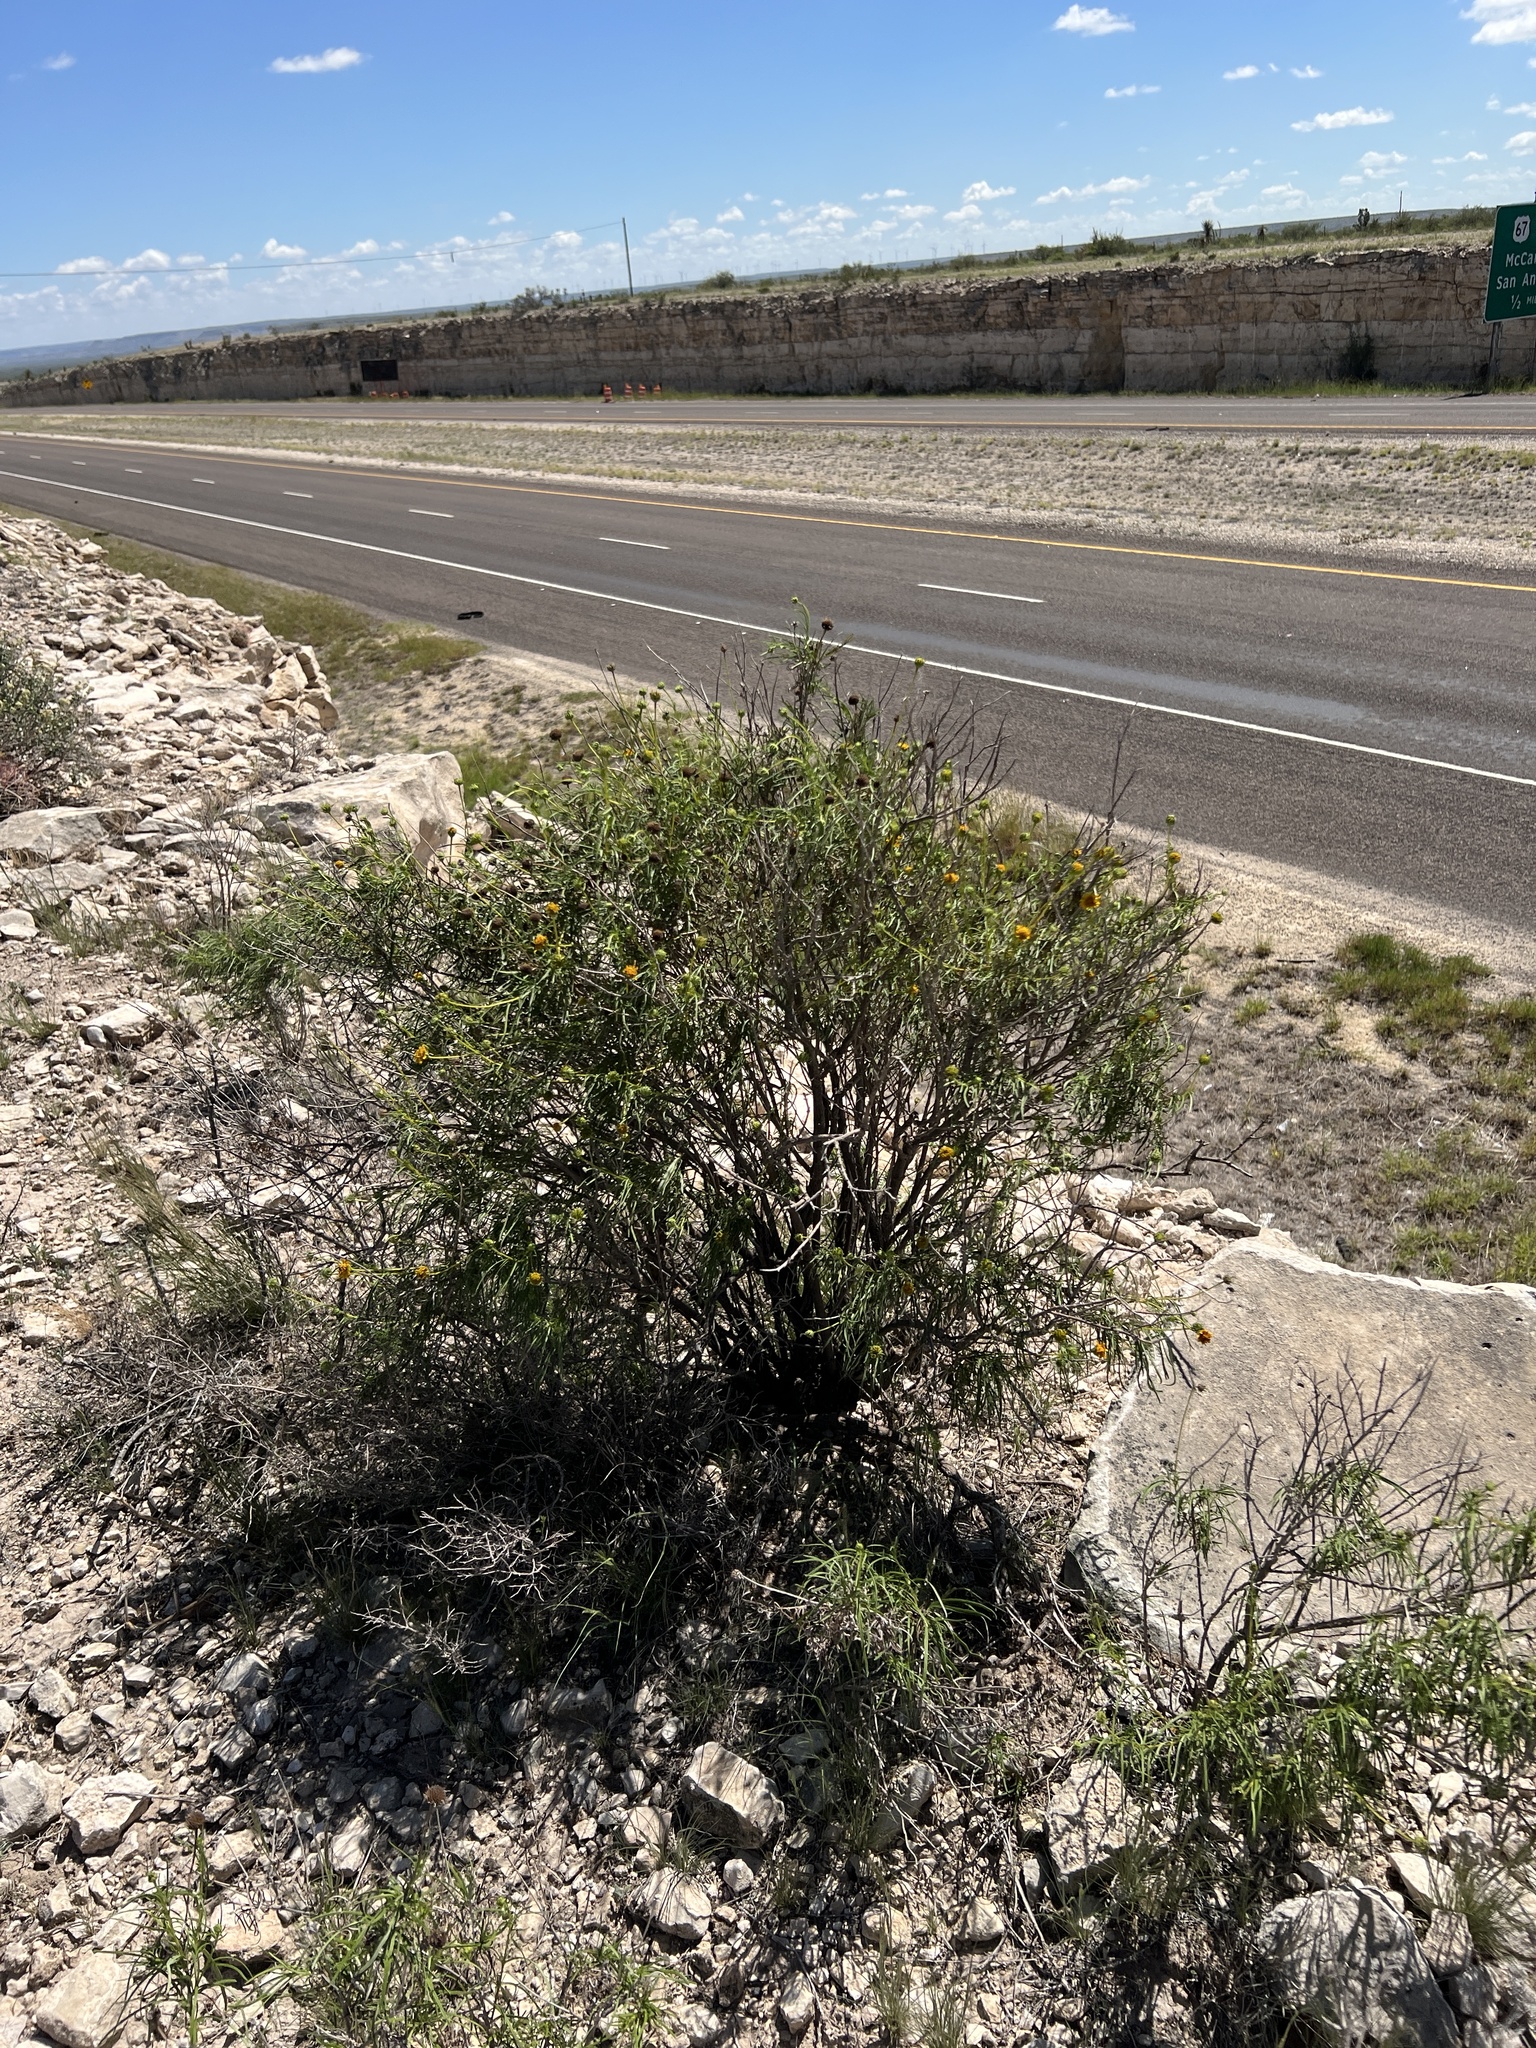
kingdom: Plantae
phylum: Tracheophyta
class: Magnoliopsida
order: Asterales
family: Asteraceae
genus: Sidneya
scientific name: Sidneya tenuifolia
